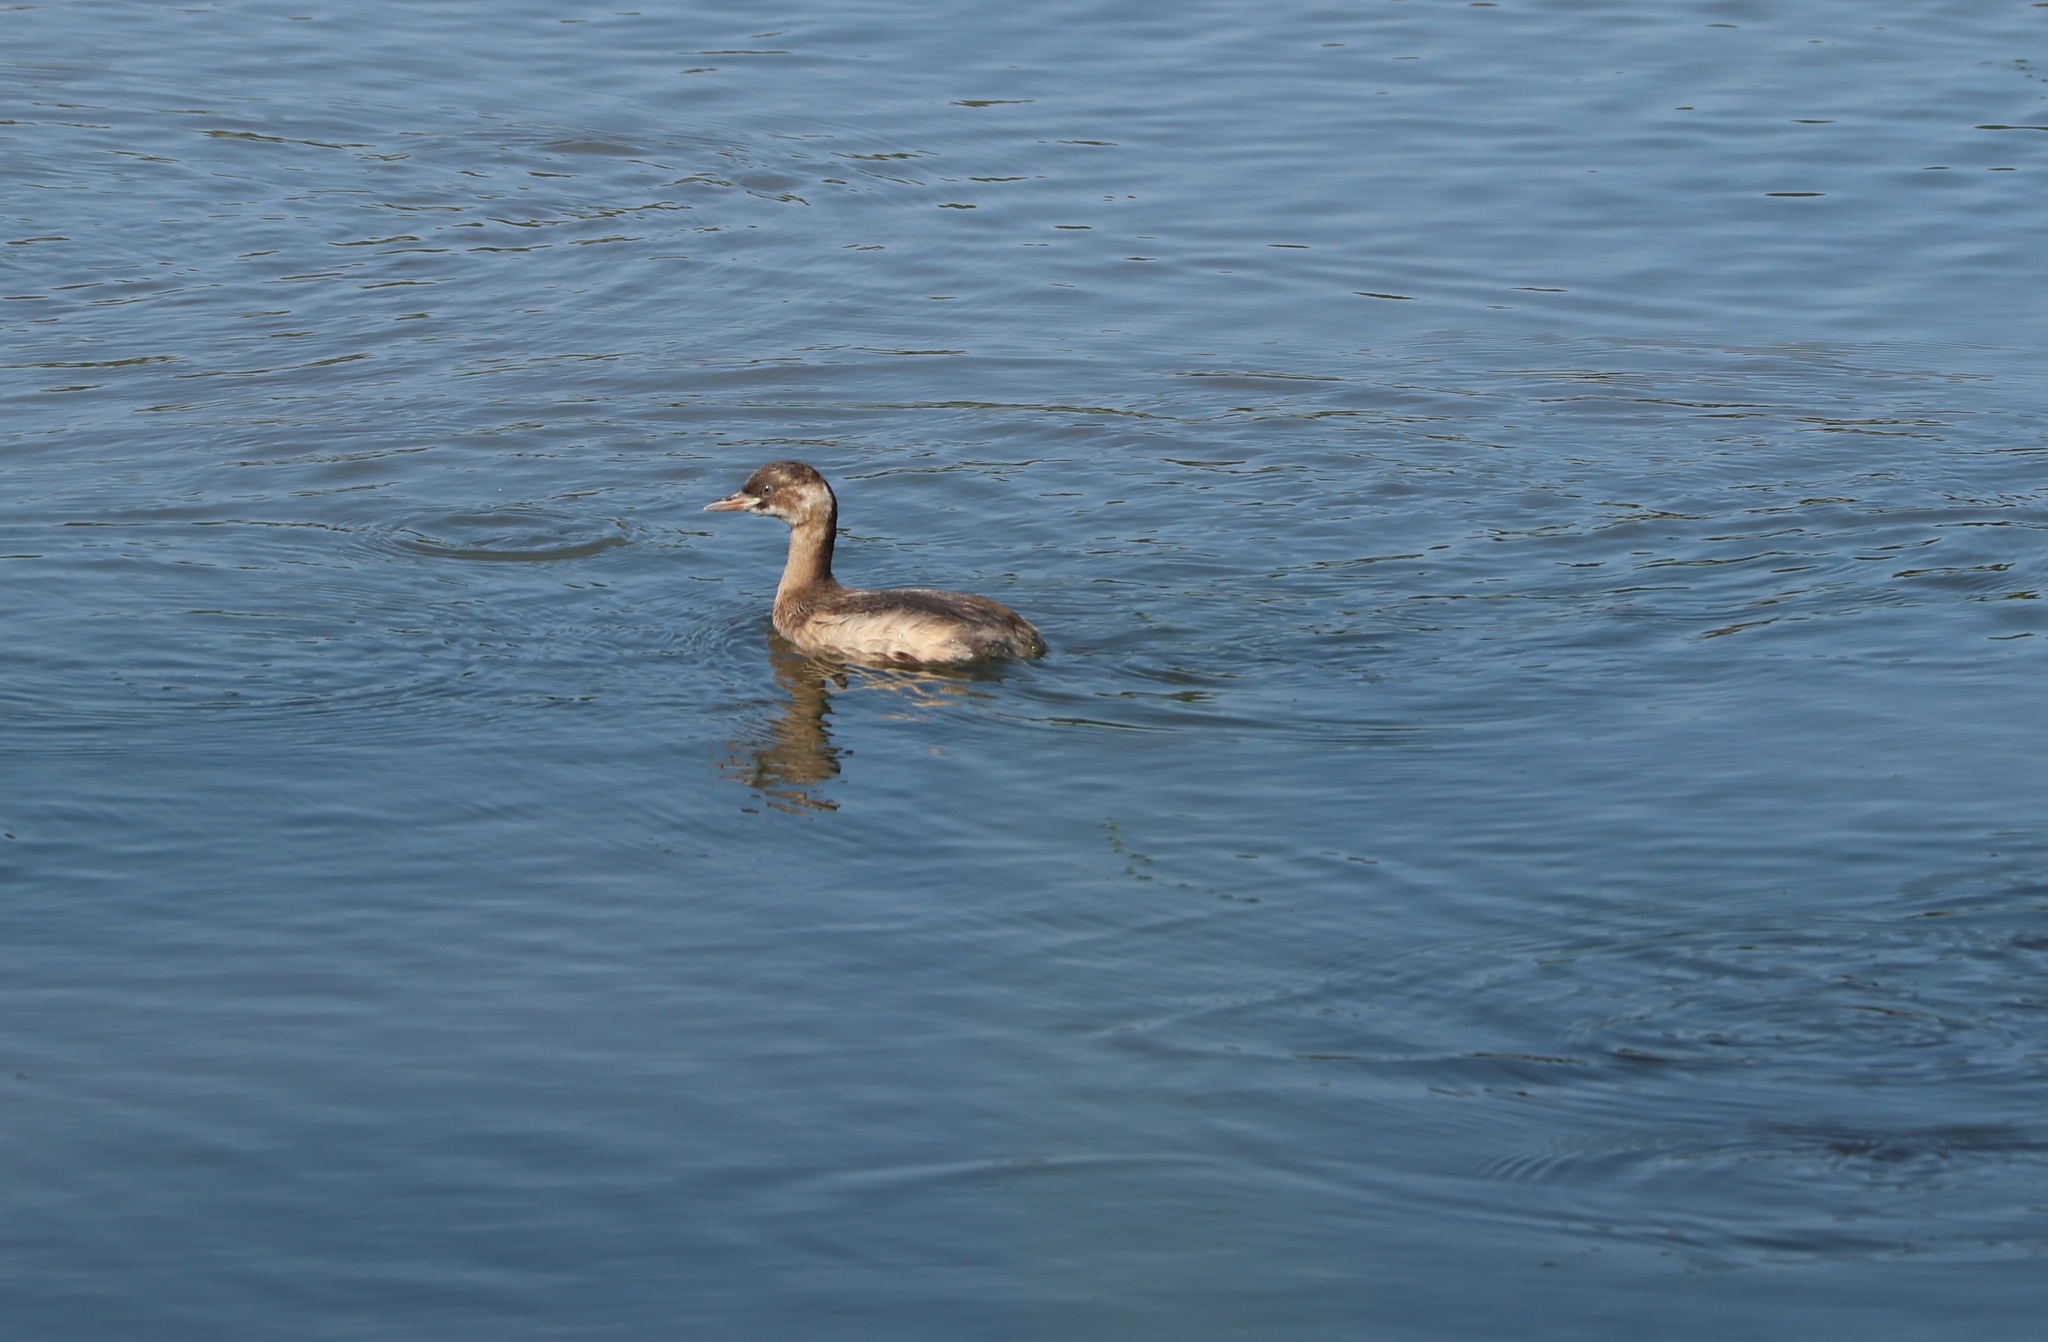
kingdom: Animalia
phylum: Chordata
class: Aves
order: Podicipediformes
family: Podicipedidae
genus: Tachybaptus
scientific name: Tachybaptus ruficollis
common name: Little grebe
